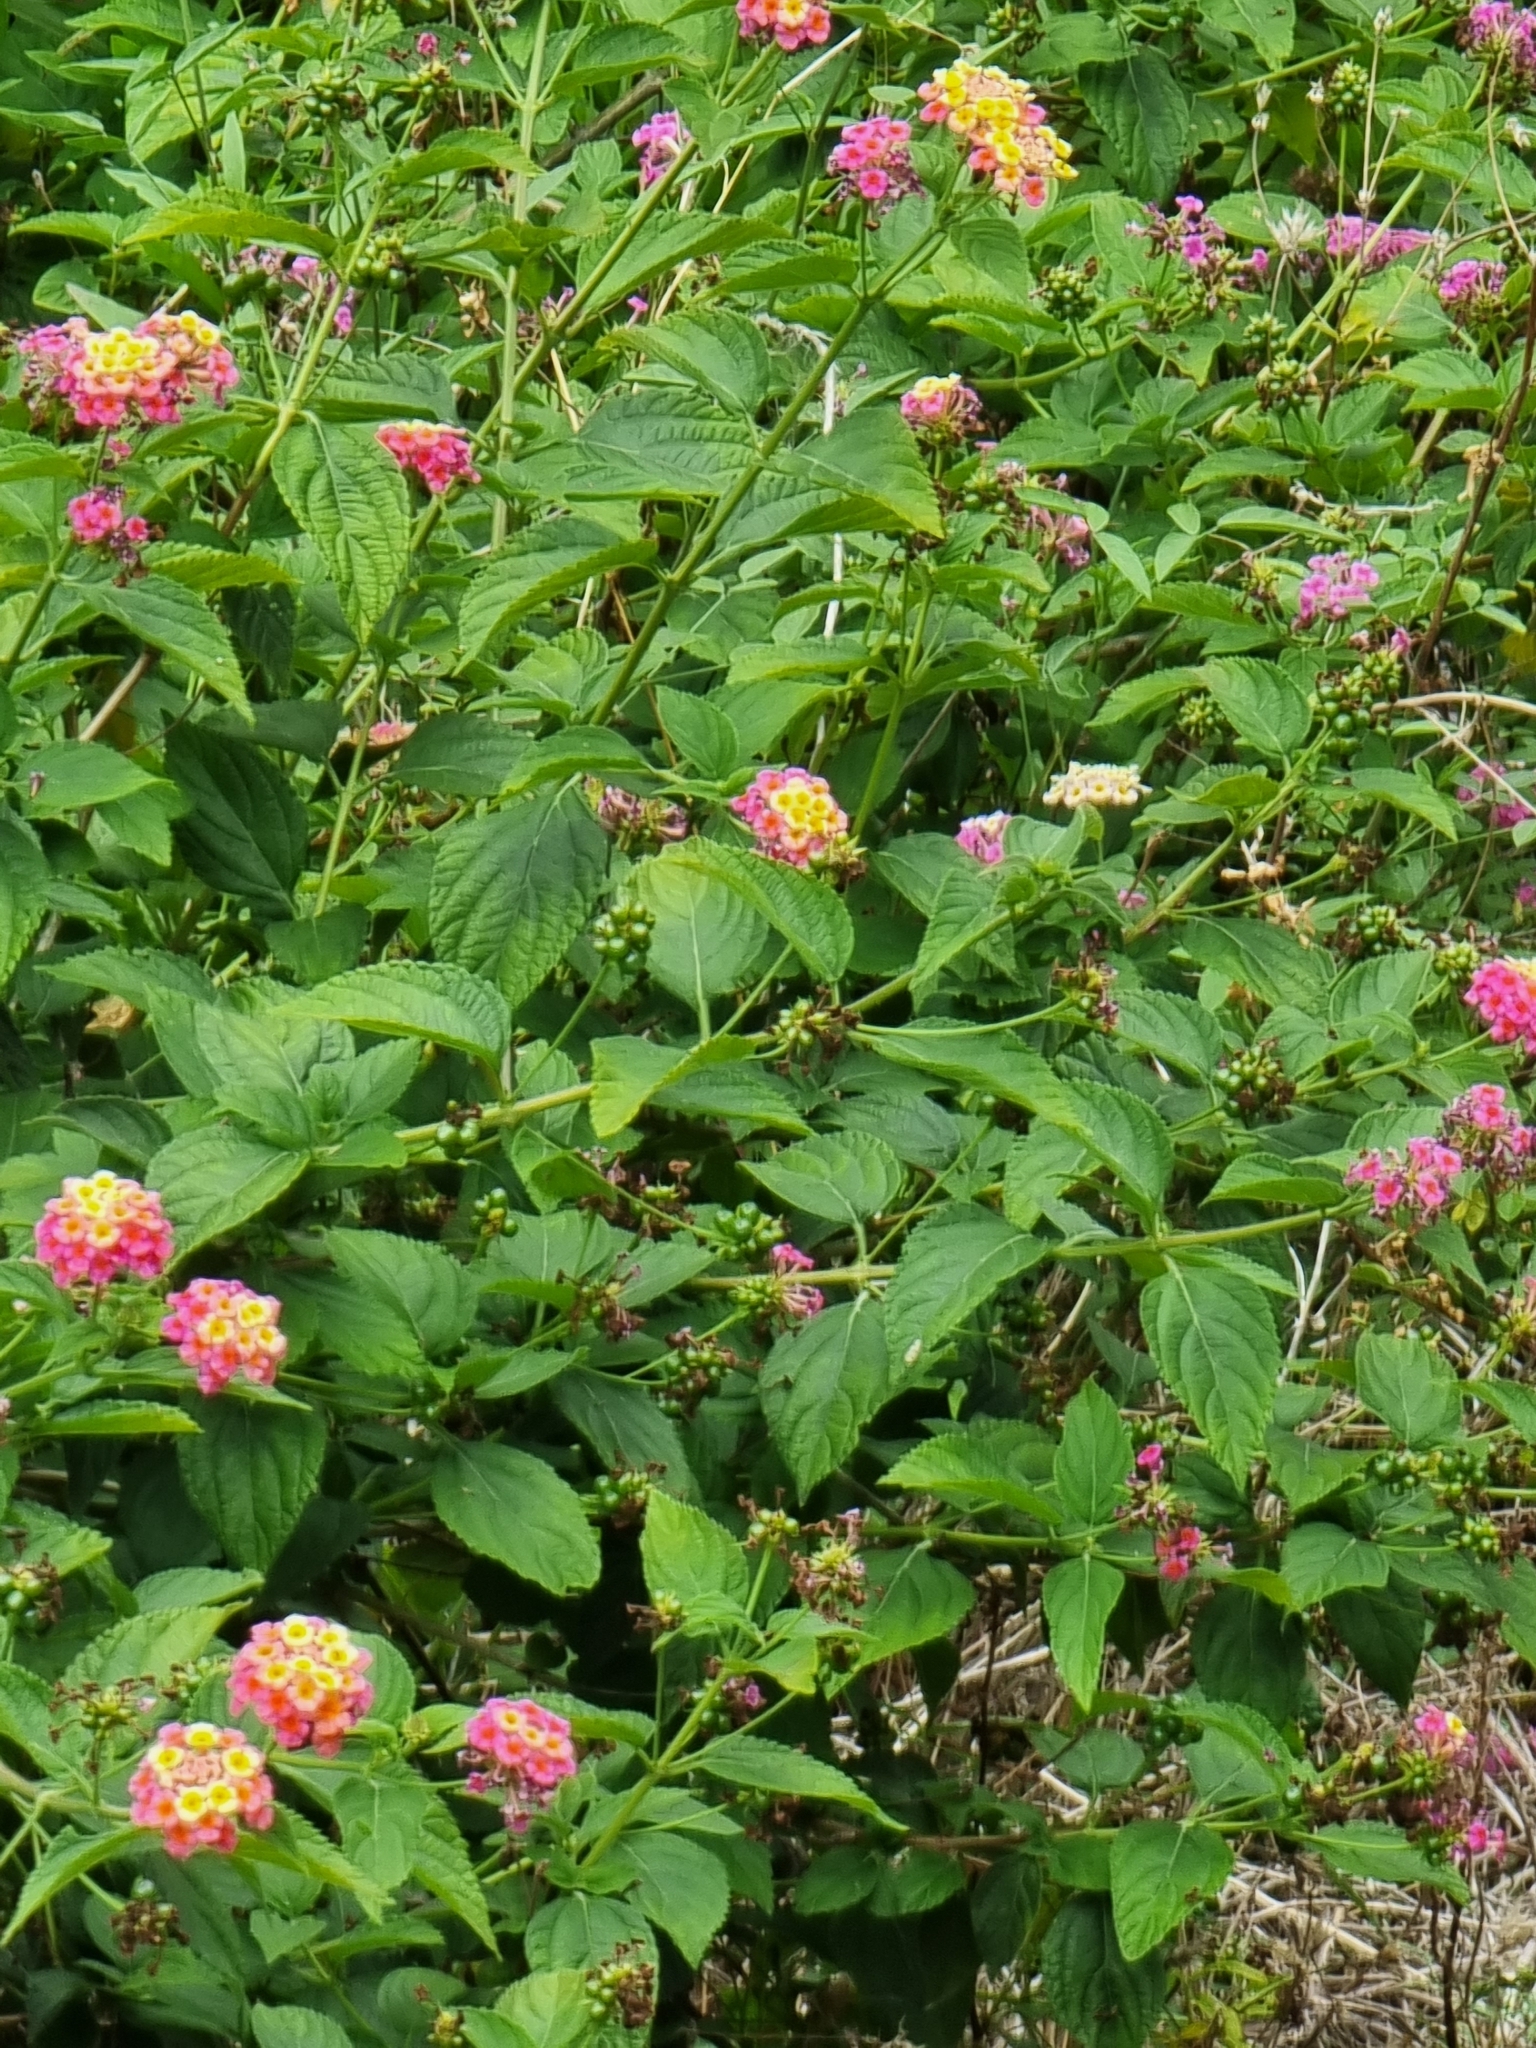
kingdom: Plantae
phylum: Tracheophyta
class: Magnoliopsida
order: Lamiales
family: Verbenaceae
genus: Lantana
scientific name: Lantana camara
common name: Lantana
